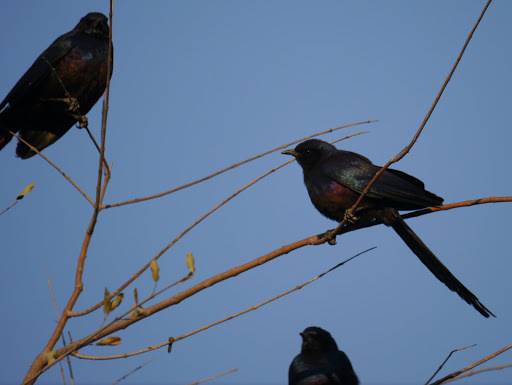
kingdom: Animalia
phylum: Chordata
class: Aves
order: Passeriformes
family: Sturnidae
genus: Lamprotornis
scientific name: Lamprotornis mevesii
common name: Meves's starling
